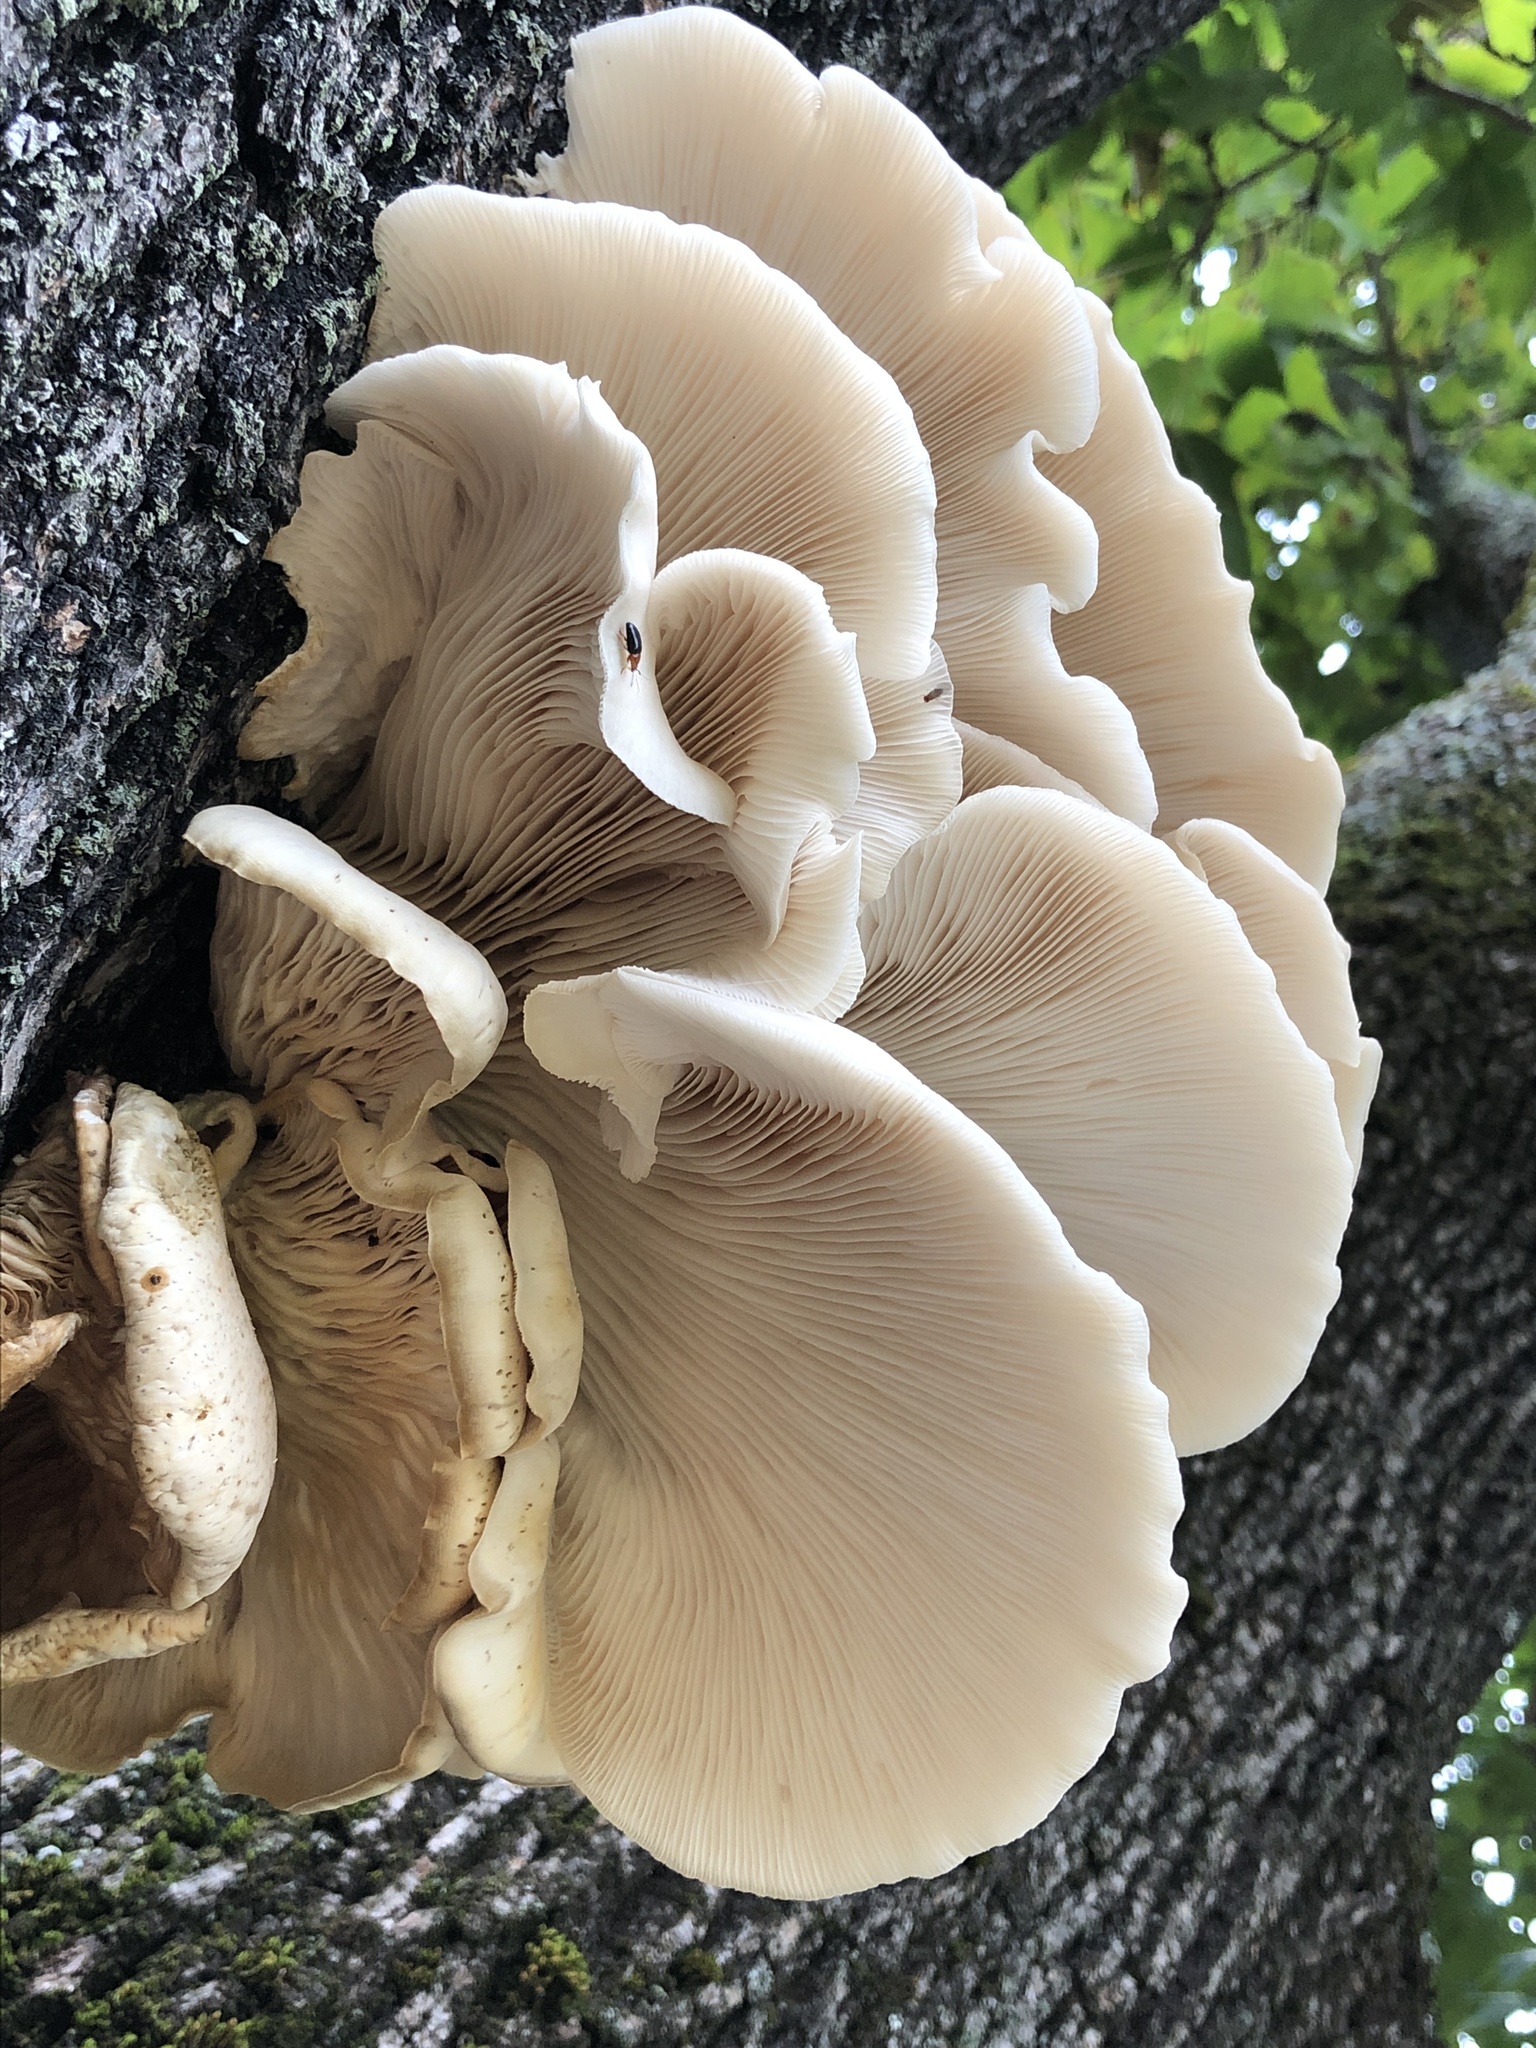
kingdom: Fungi
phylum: Basidiomycota
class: Agaricomycetes
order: Agaricales
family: Pleurotaceae
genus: Pleurotus
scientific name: Pleurotus pulmonarius
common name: Pale oyster
